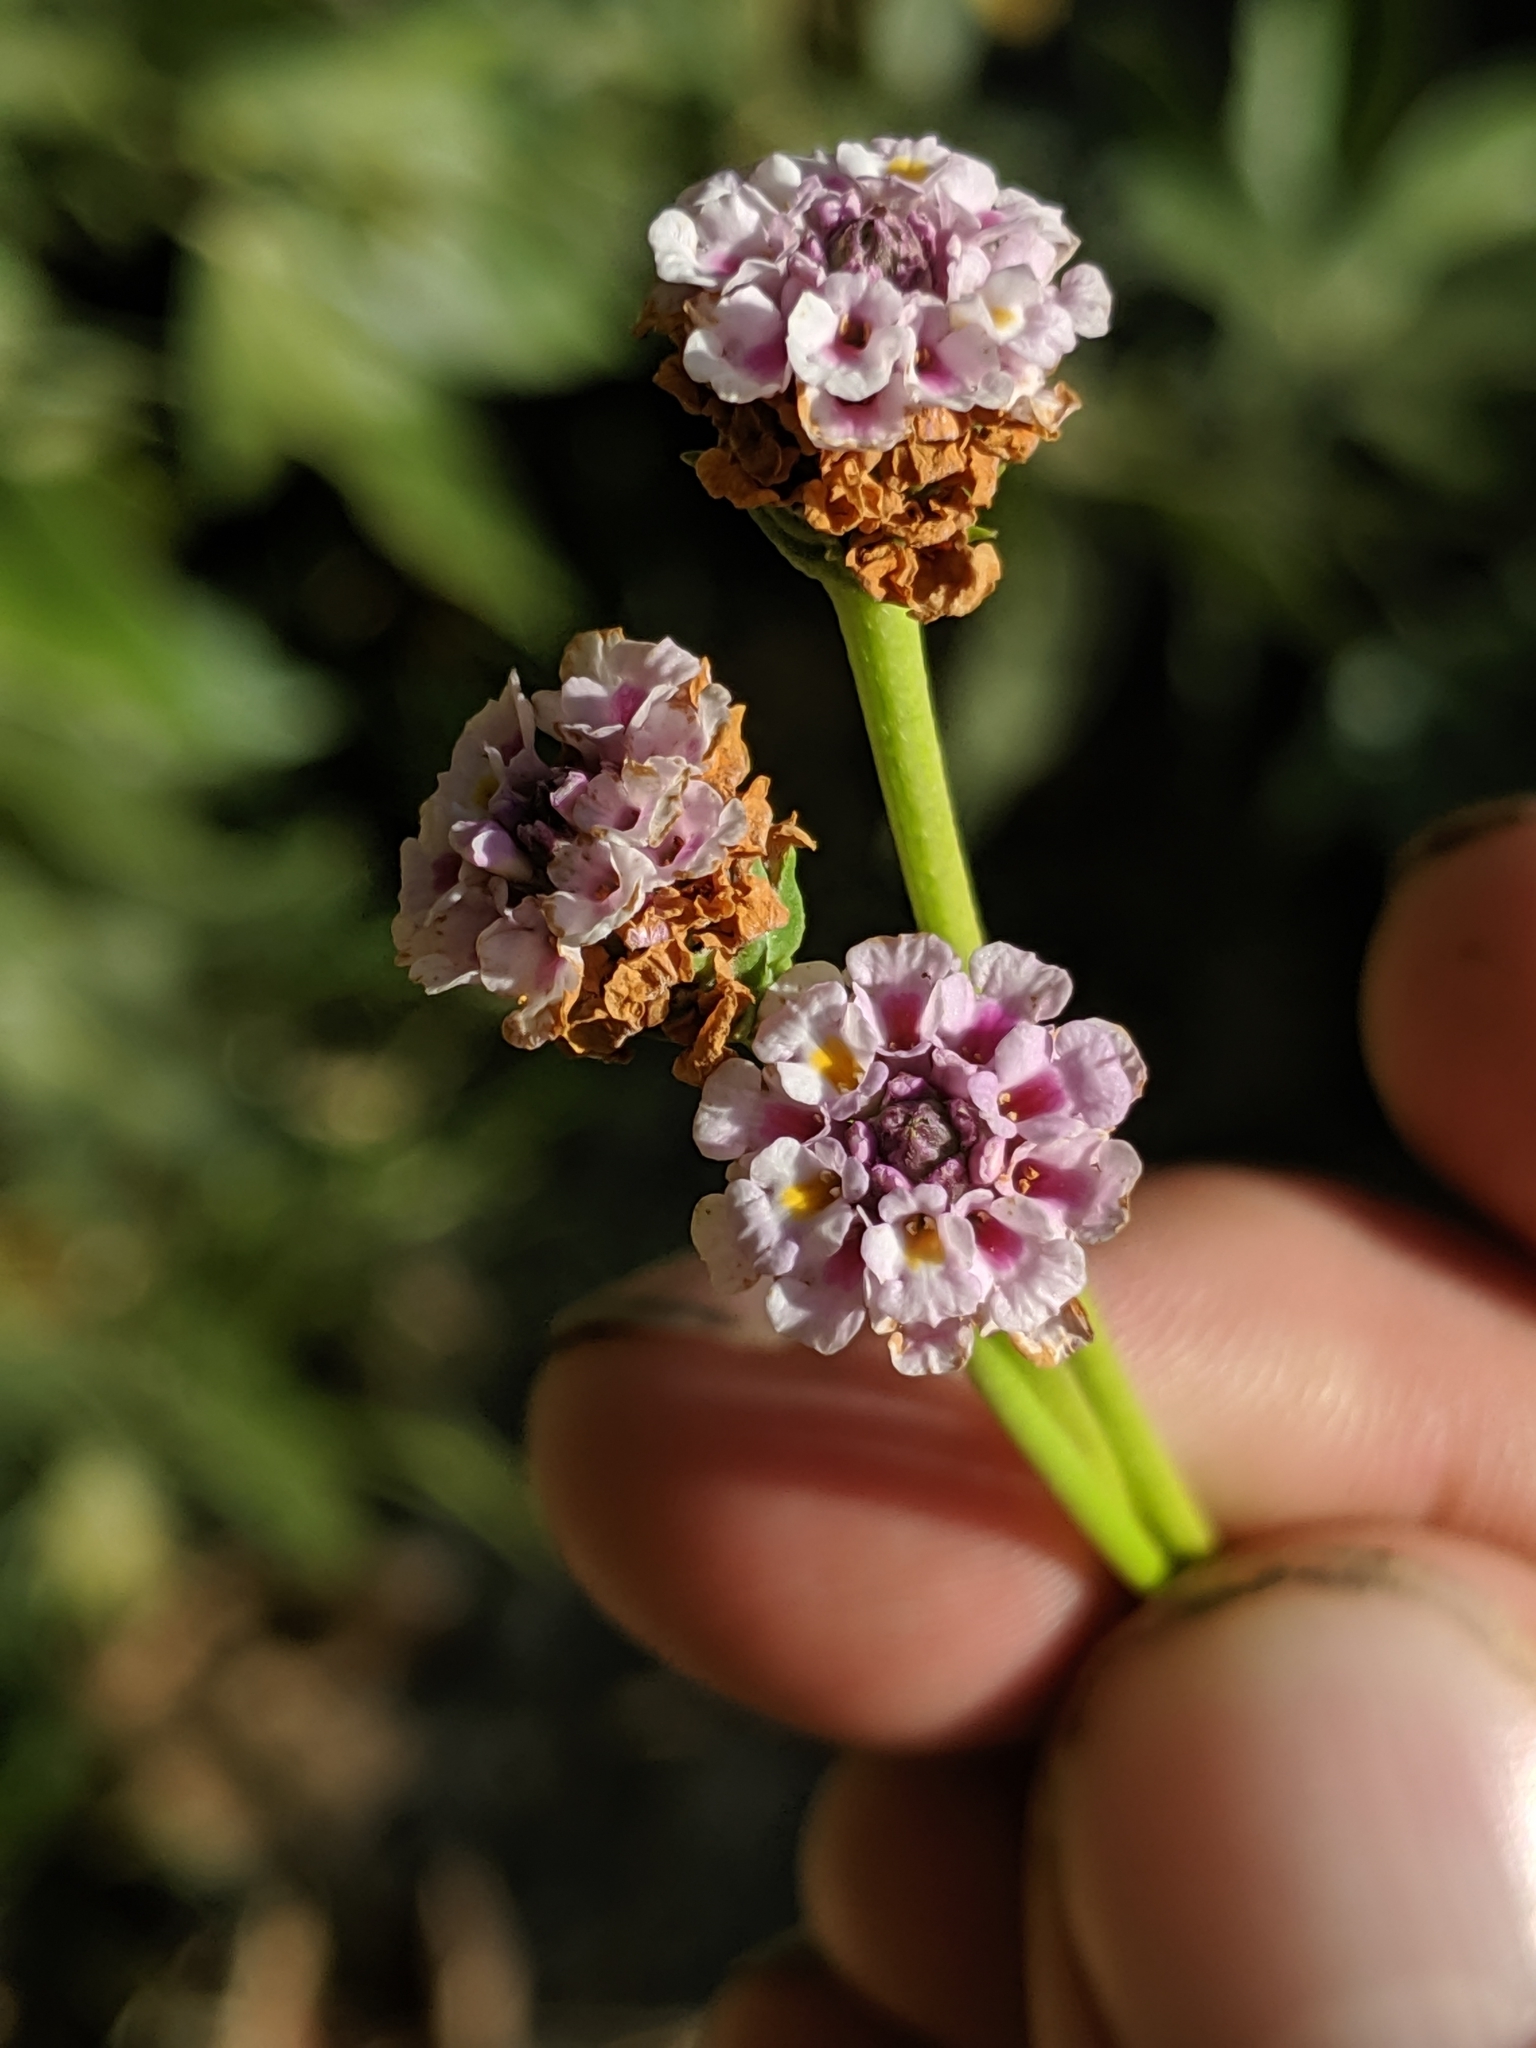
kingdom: Plantae
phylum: Tracheophyta
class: Magnoliopsida
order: Lamiales
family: Verbenaceae
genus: Phyla
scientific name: Phyla nodiflora
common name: Frogfruit
